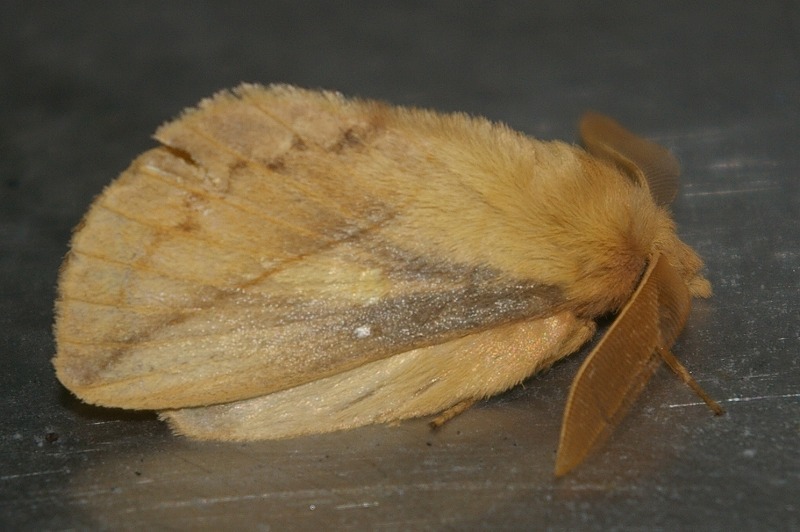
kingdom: Animalia
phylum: Arthropoda
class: Insecta
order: Lepidoptera
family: Lasiocampidae
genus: Euthrix
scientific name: Euthrix potatoria
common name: Drinker
